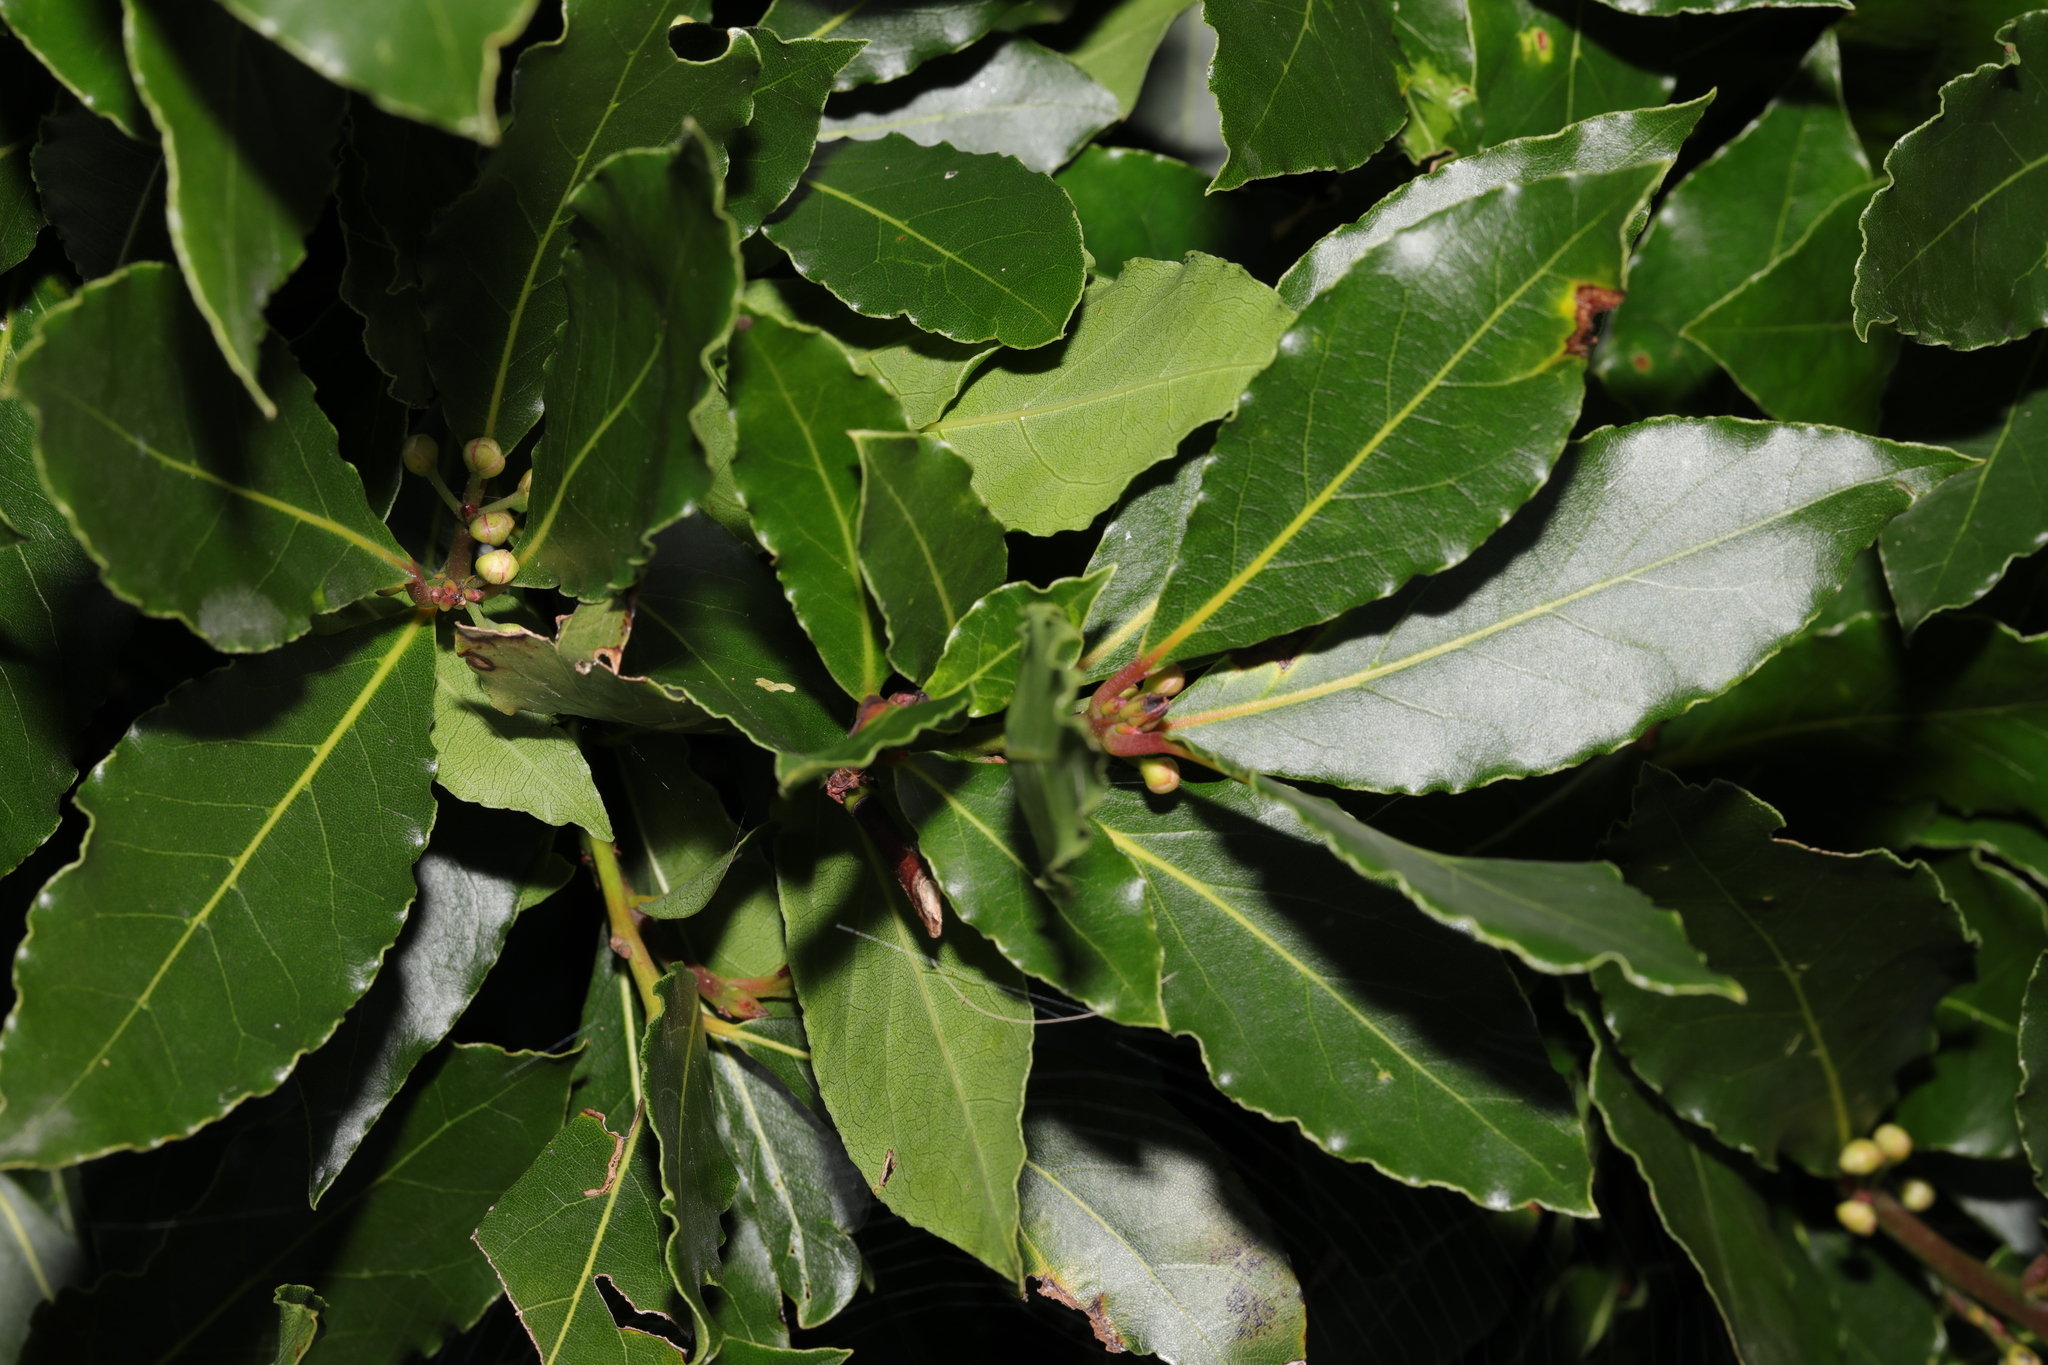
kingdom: Plantae
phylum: Tracheophyta
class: Magnoliopsida
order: Laurales
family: Lauraceae
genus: Laurus
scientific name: Laurus nobilis
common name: Bay
